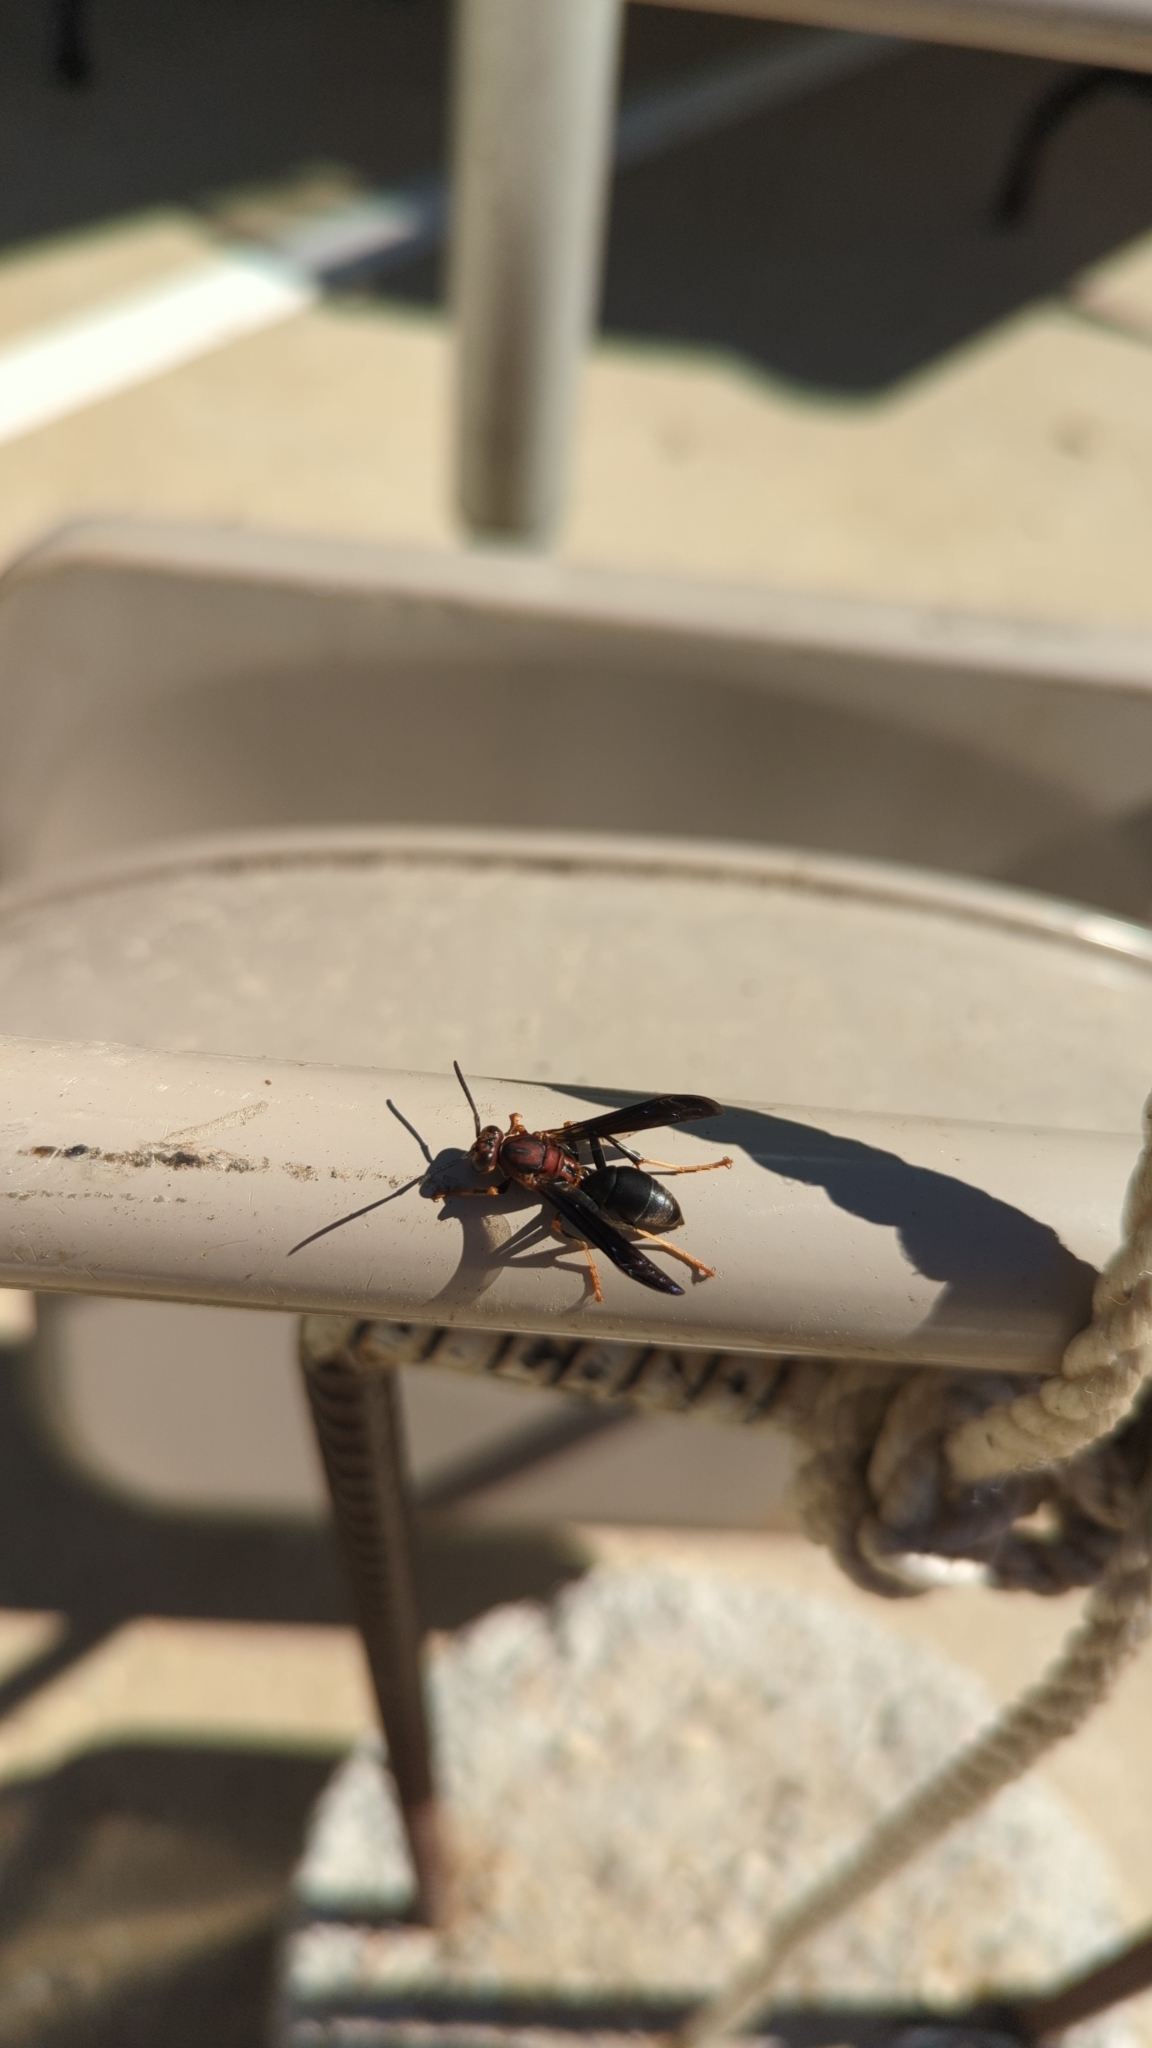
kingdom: Animalia
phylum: Arthropoda
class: Insecta
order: Hymenoptera
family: Eumenidae
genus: Polistes
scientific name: Polistes metricus
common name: Metric paper wasp
